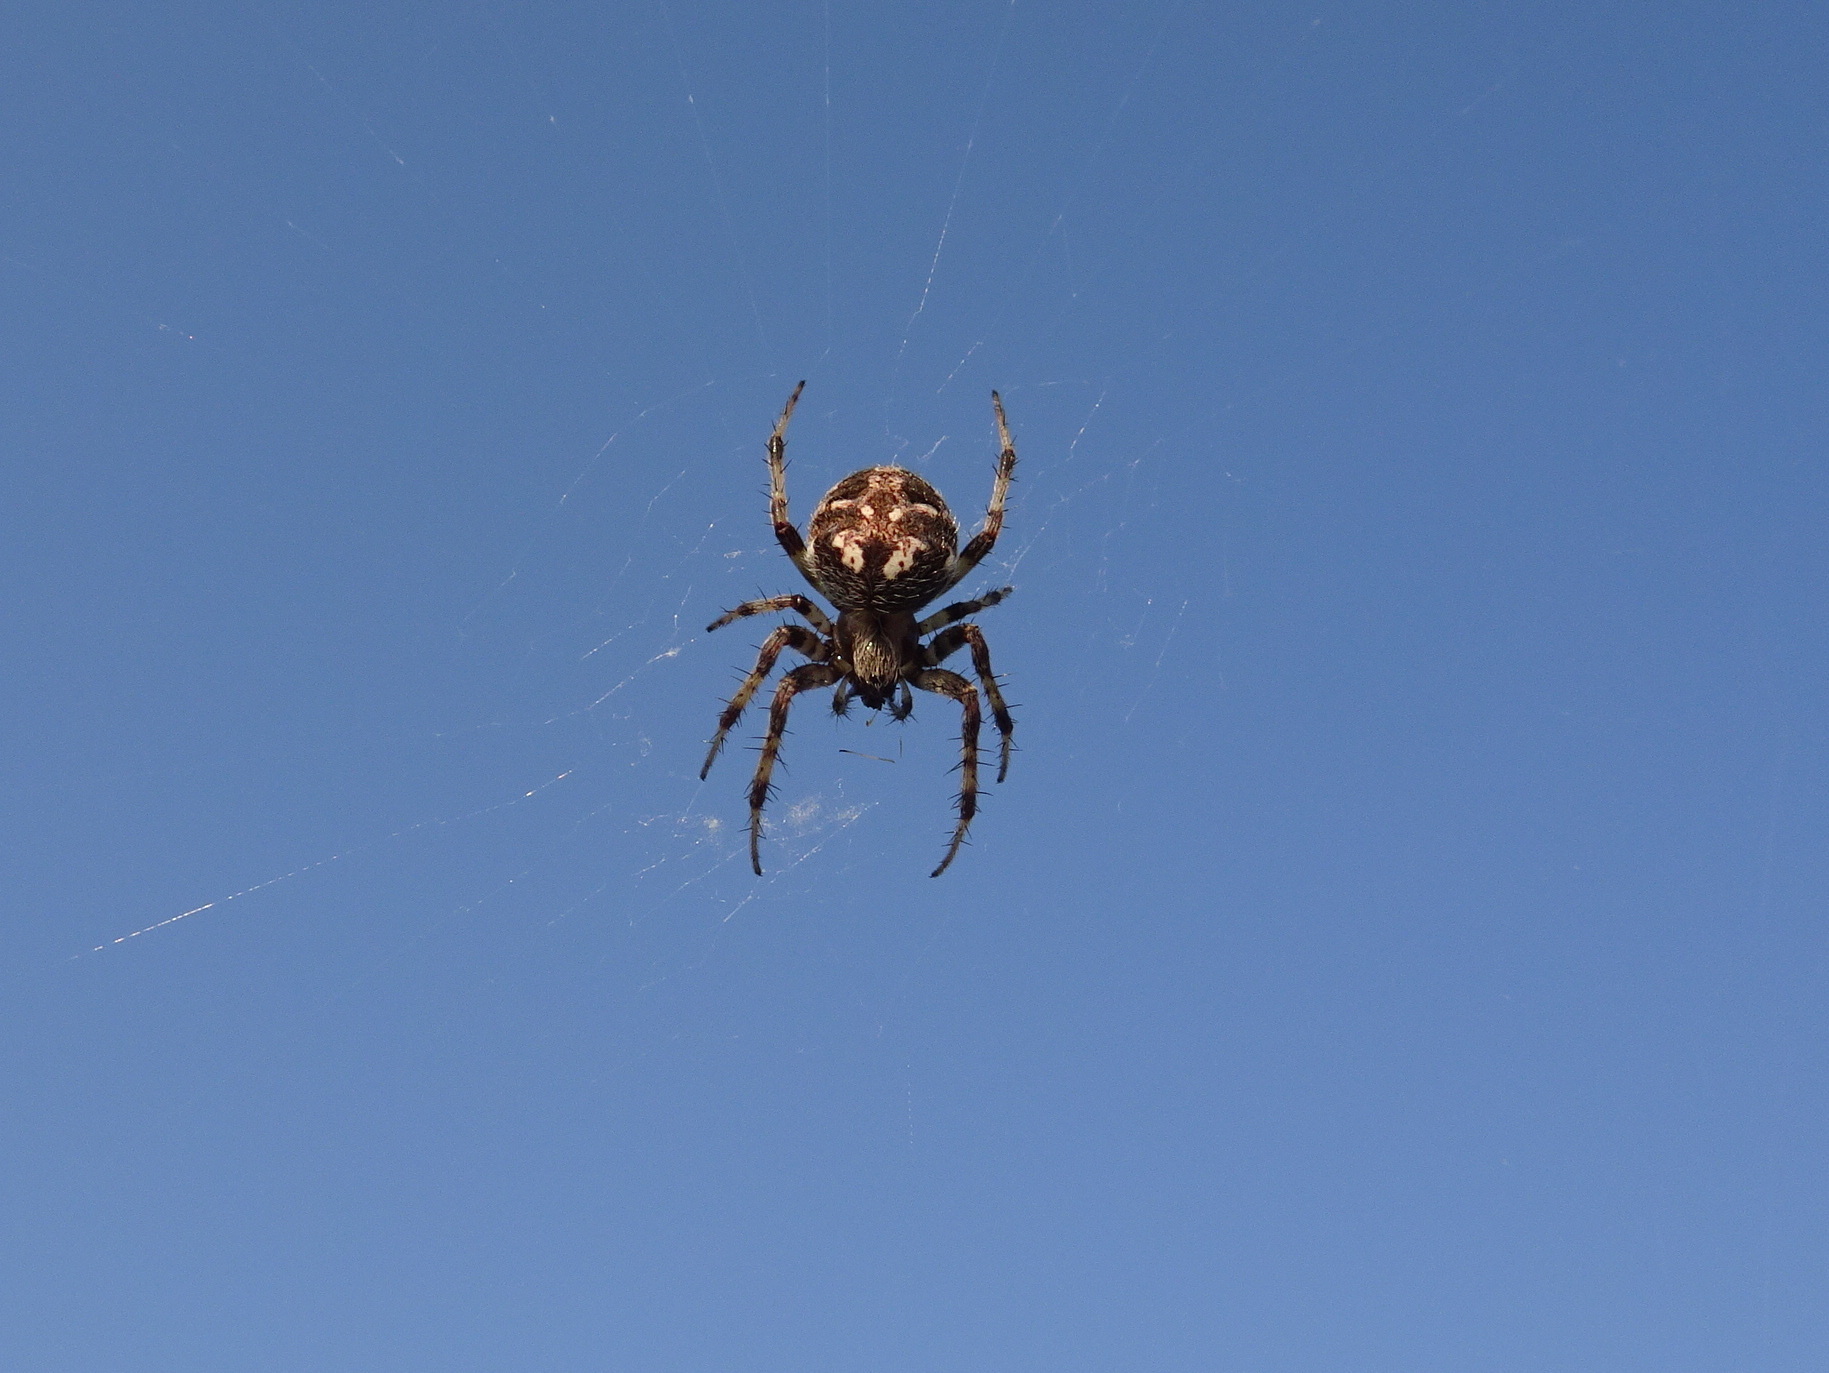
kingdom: Animalia
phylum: Arthropoda
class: Arachnida
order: Araneae
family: Araneidae
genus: Neoscona
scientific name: Neoscona arabesca
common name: Orb weavers
